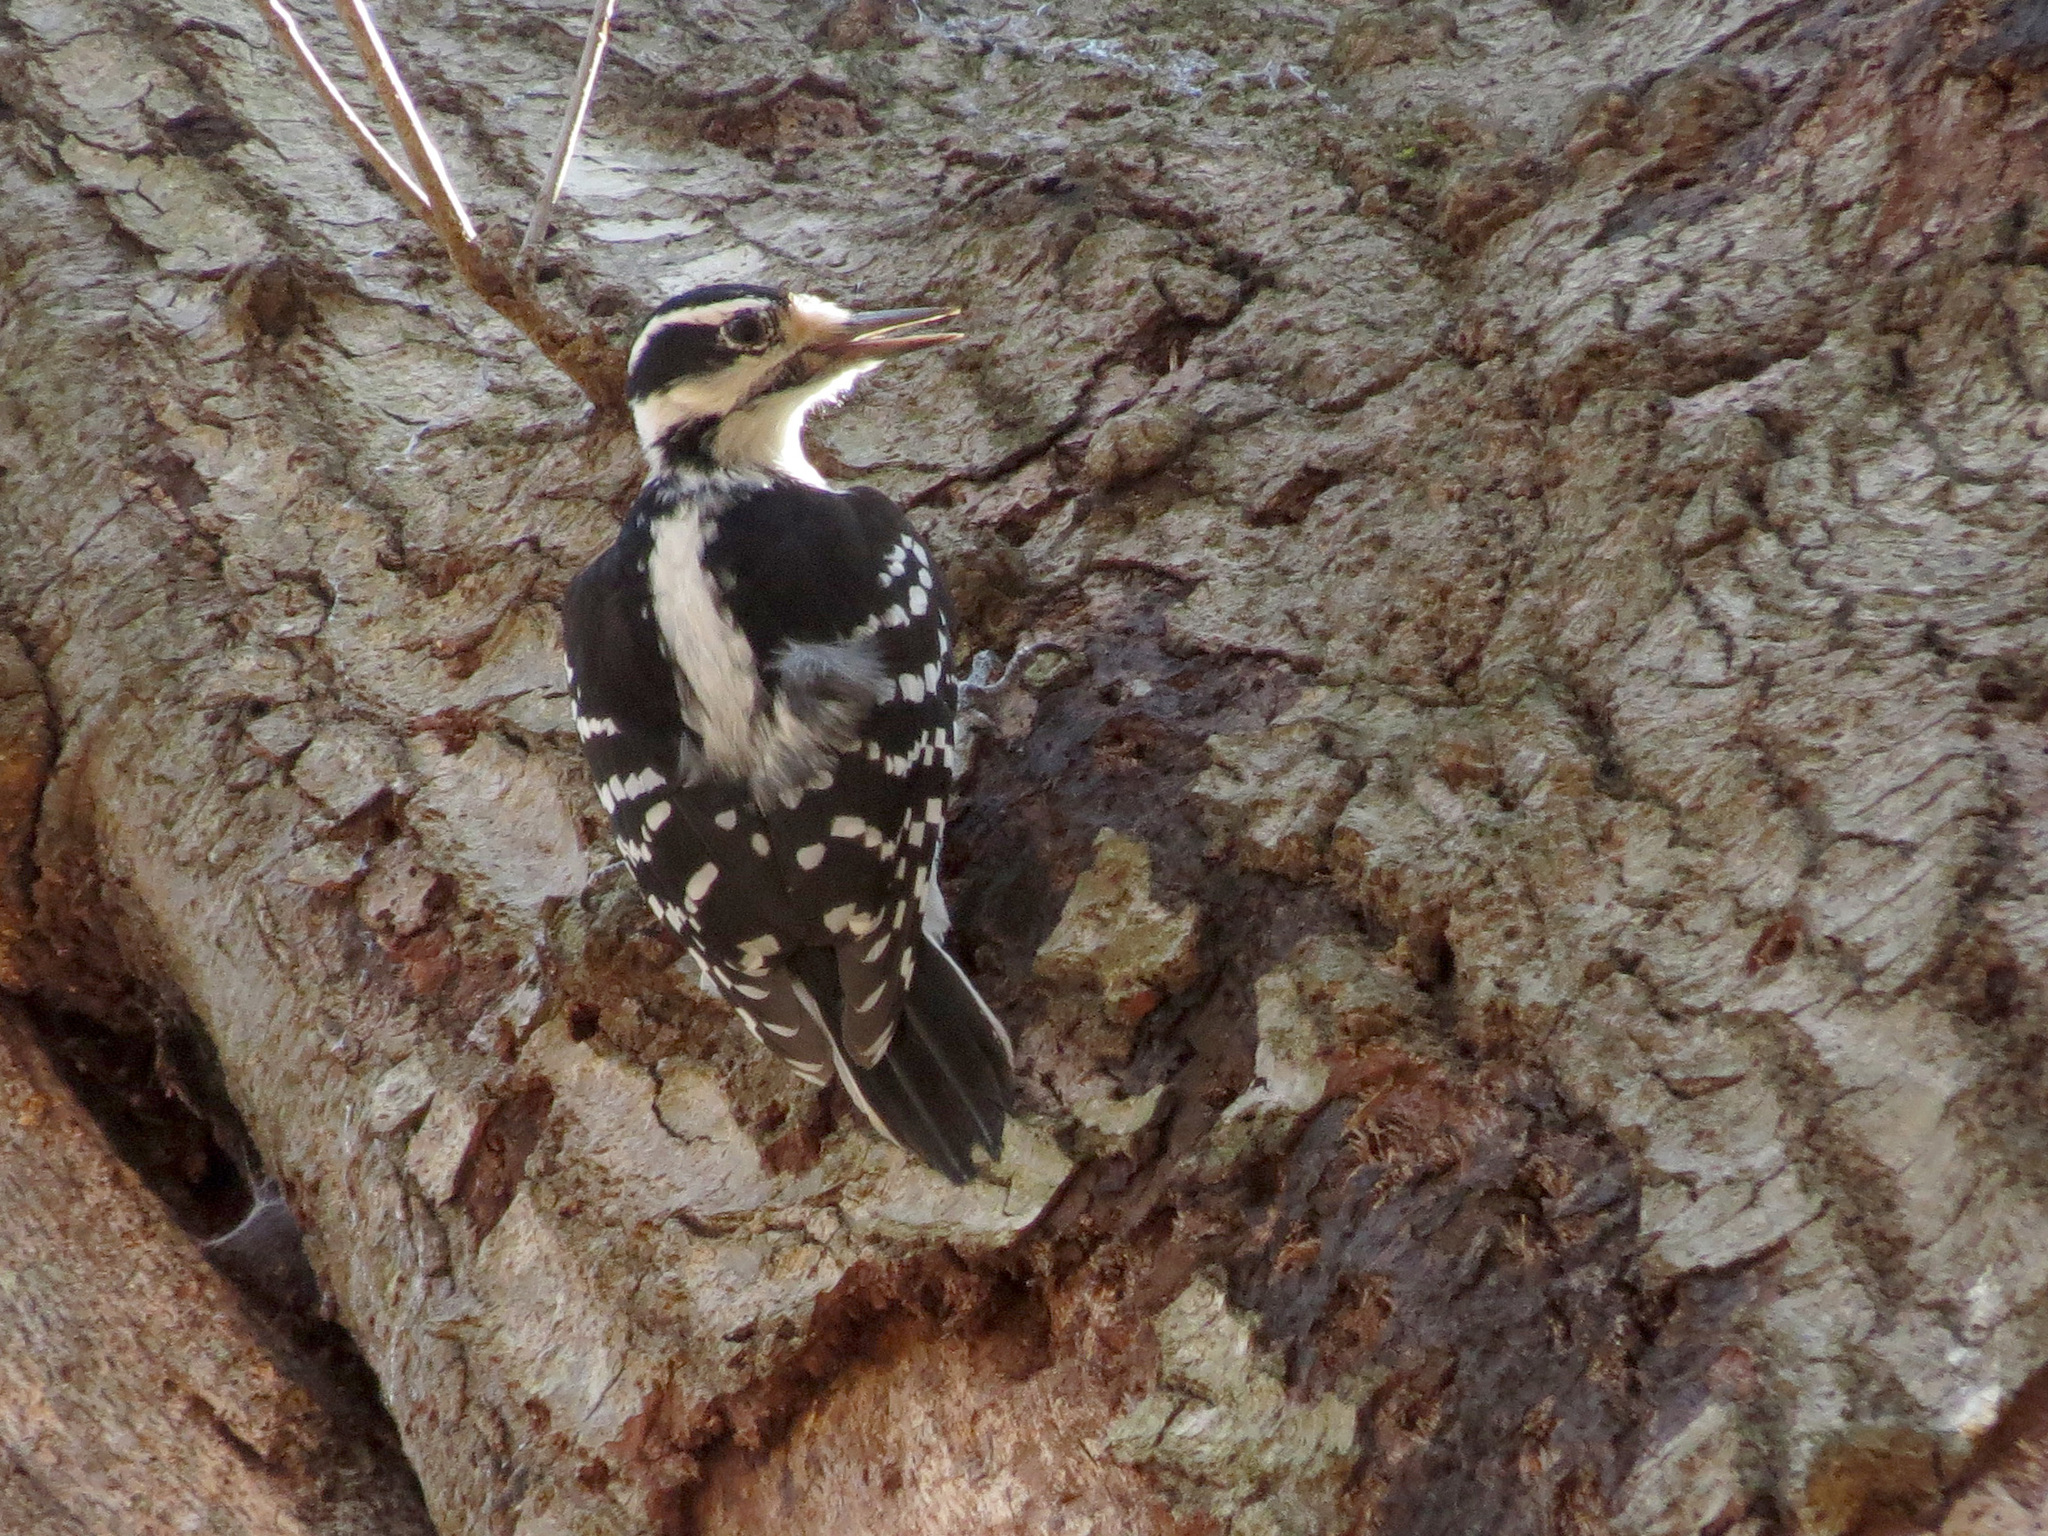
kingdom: Animalia
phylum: Chordata
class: Aves
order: Piciformes
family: Picidae
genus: Leuconotopicus
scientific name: Leuconotopicus villosus
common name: Hairy woodpecker
